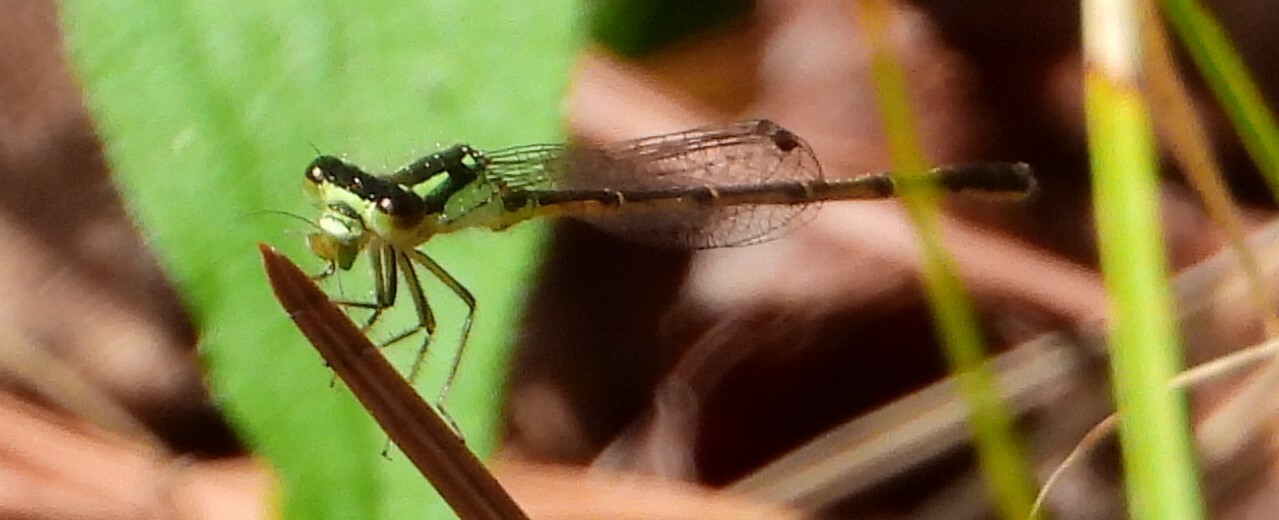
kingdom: Animalia
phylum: Arthropoda
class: Insecta
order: Odonata
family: Coenagrionidae
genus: Ischnura
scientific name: Ischnura posita
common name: Fragile forktail
